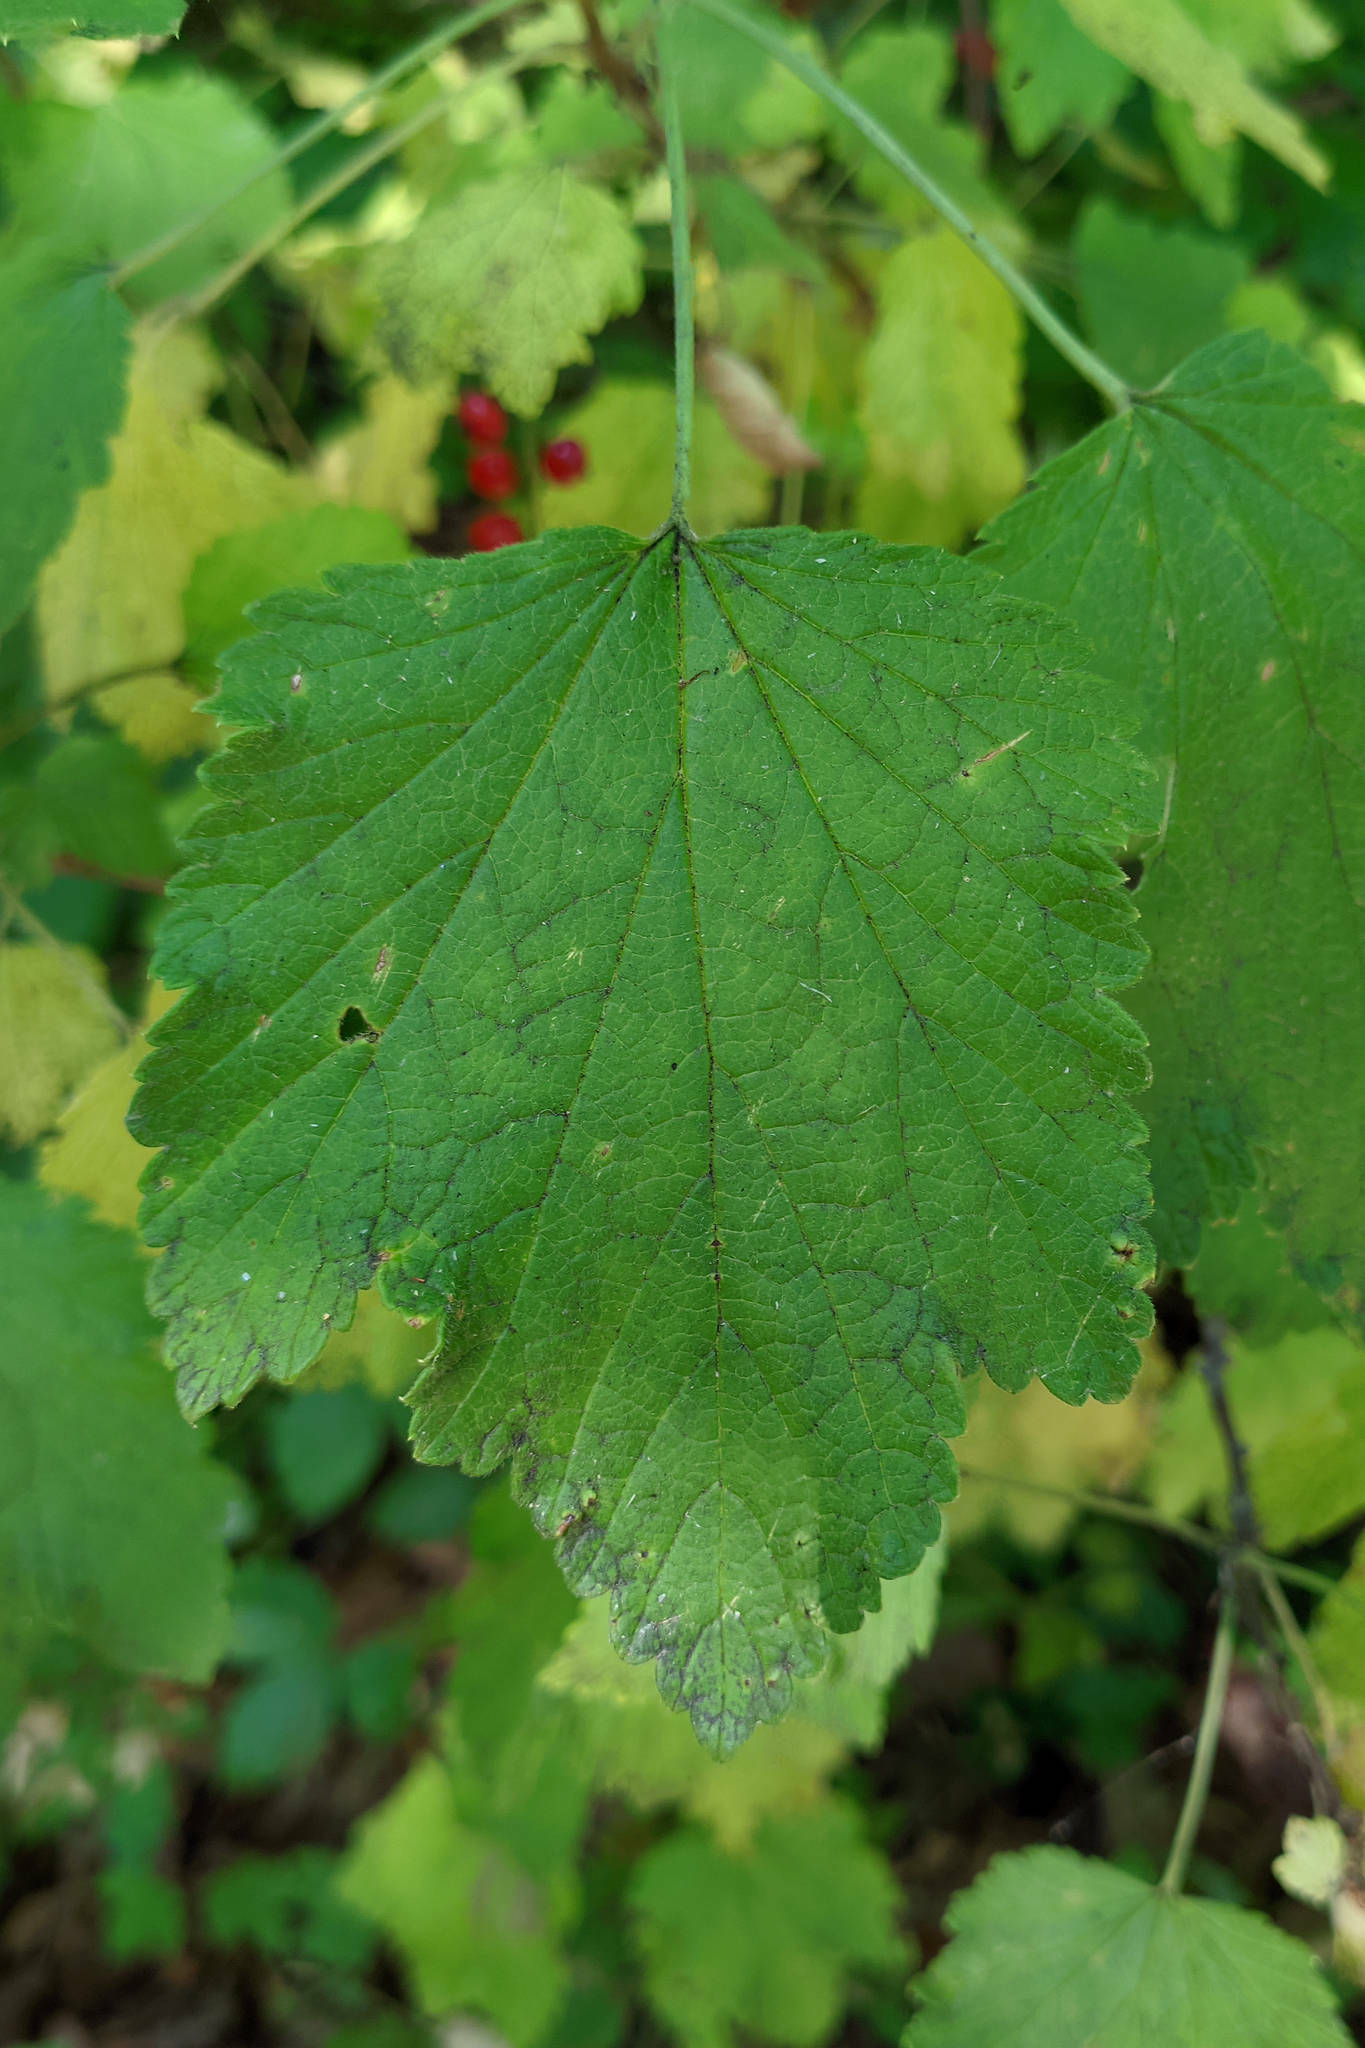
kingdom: Plantae
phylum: Tracheophyta
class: Magnoliopsida
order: Saxifragales
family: Grossulariaceae
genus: Ribes
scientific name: Ribes rubrum
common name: Red currant
